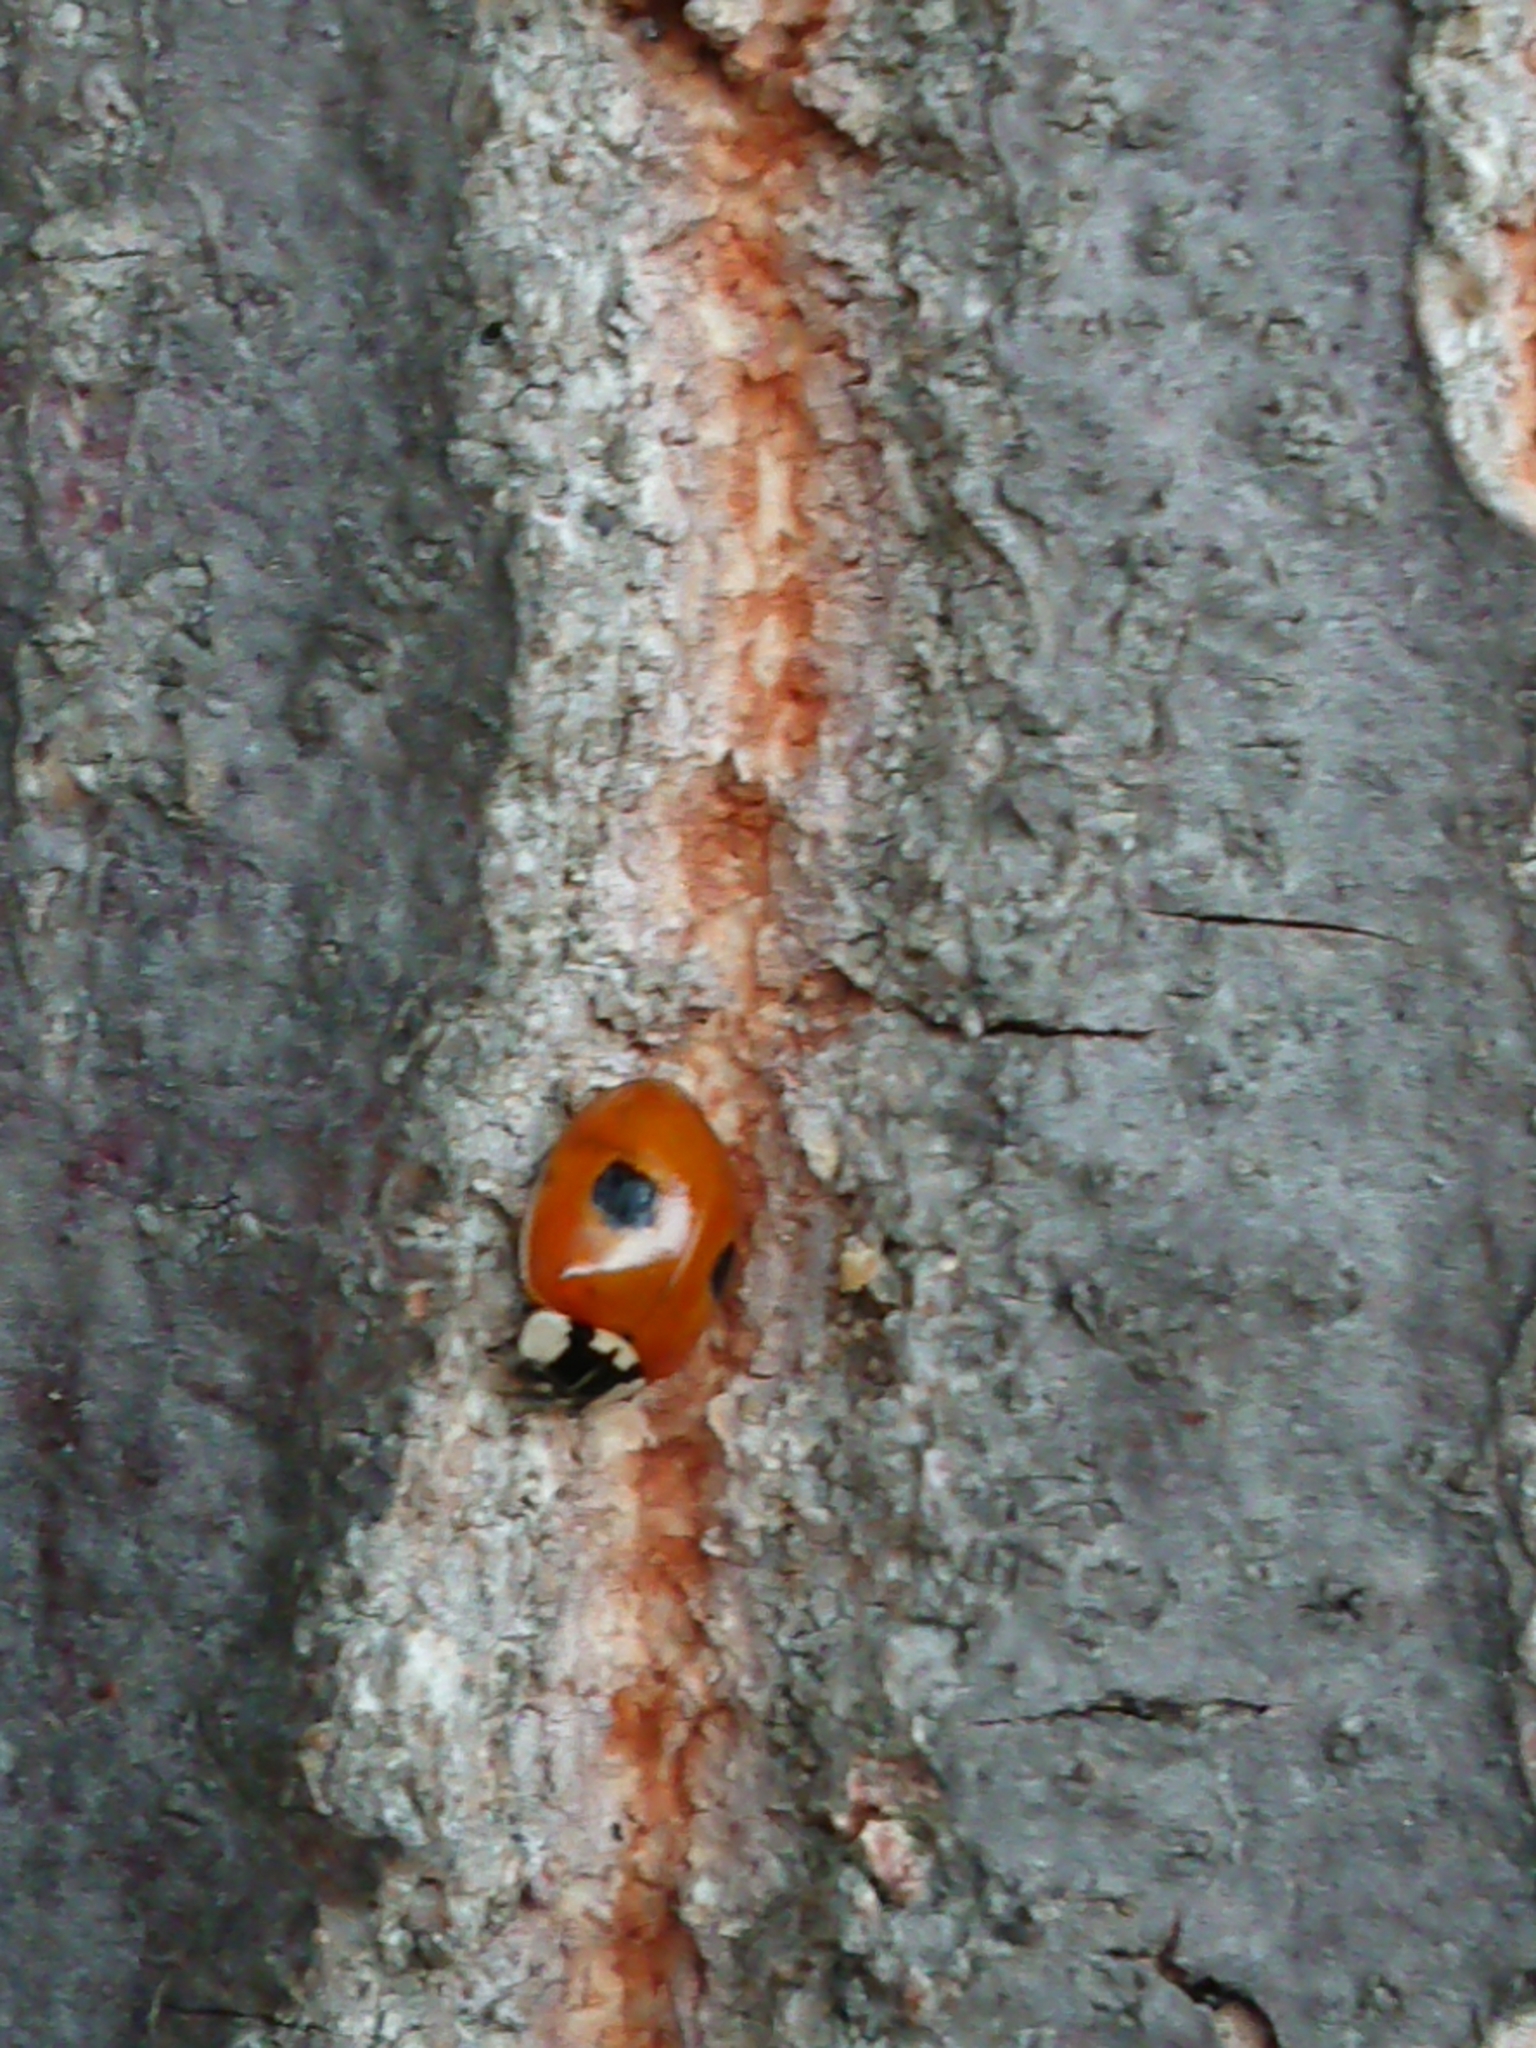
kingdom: Animalia
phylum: Arthropoda
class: Insecta
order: Coleoptera
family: Coccinellidae
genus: Adalia
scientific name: Adalia bipunctata
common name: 2-spot ladybird
